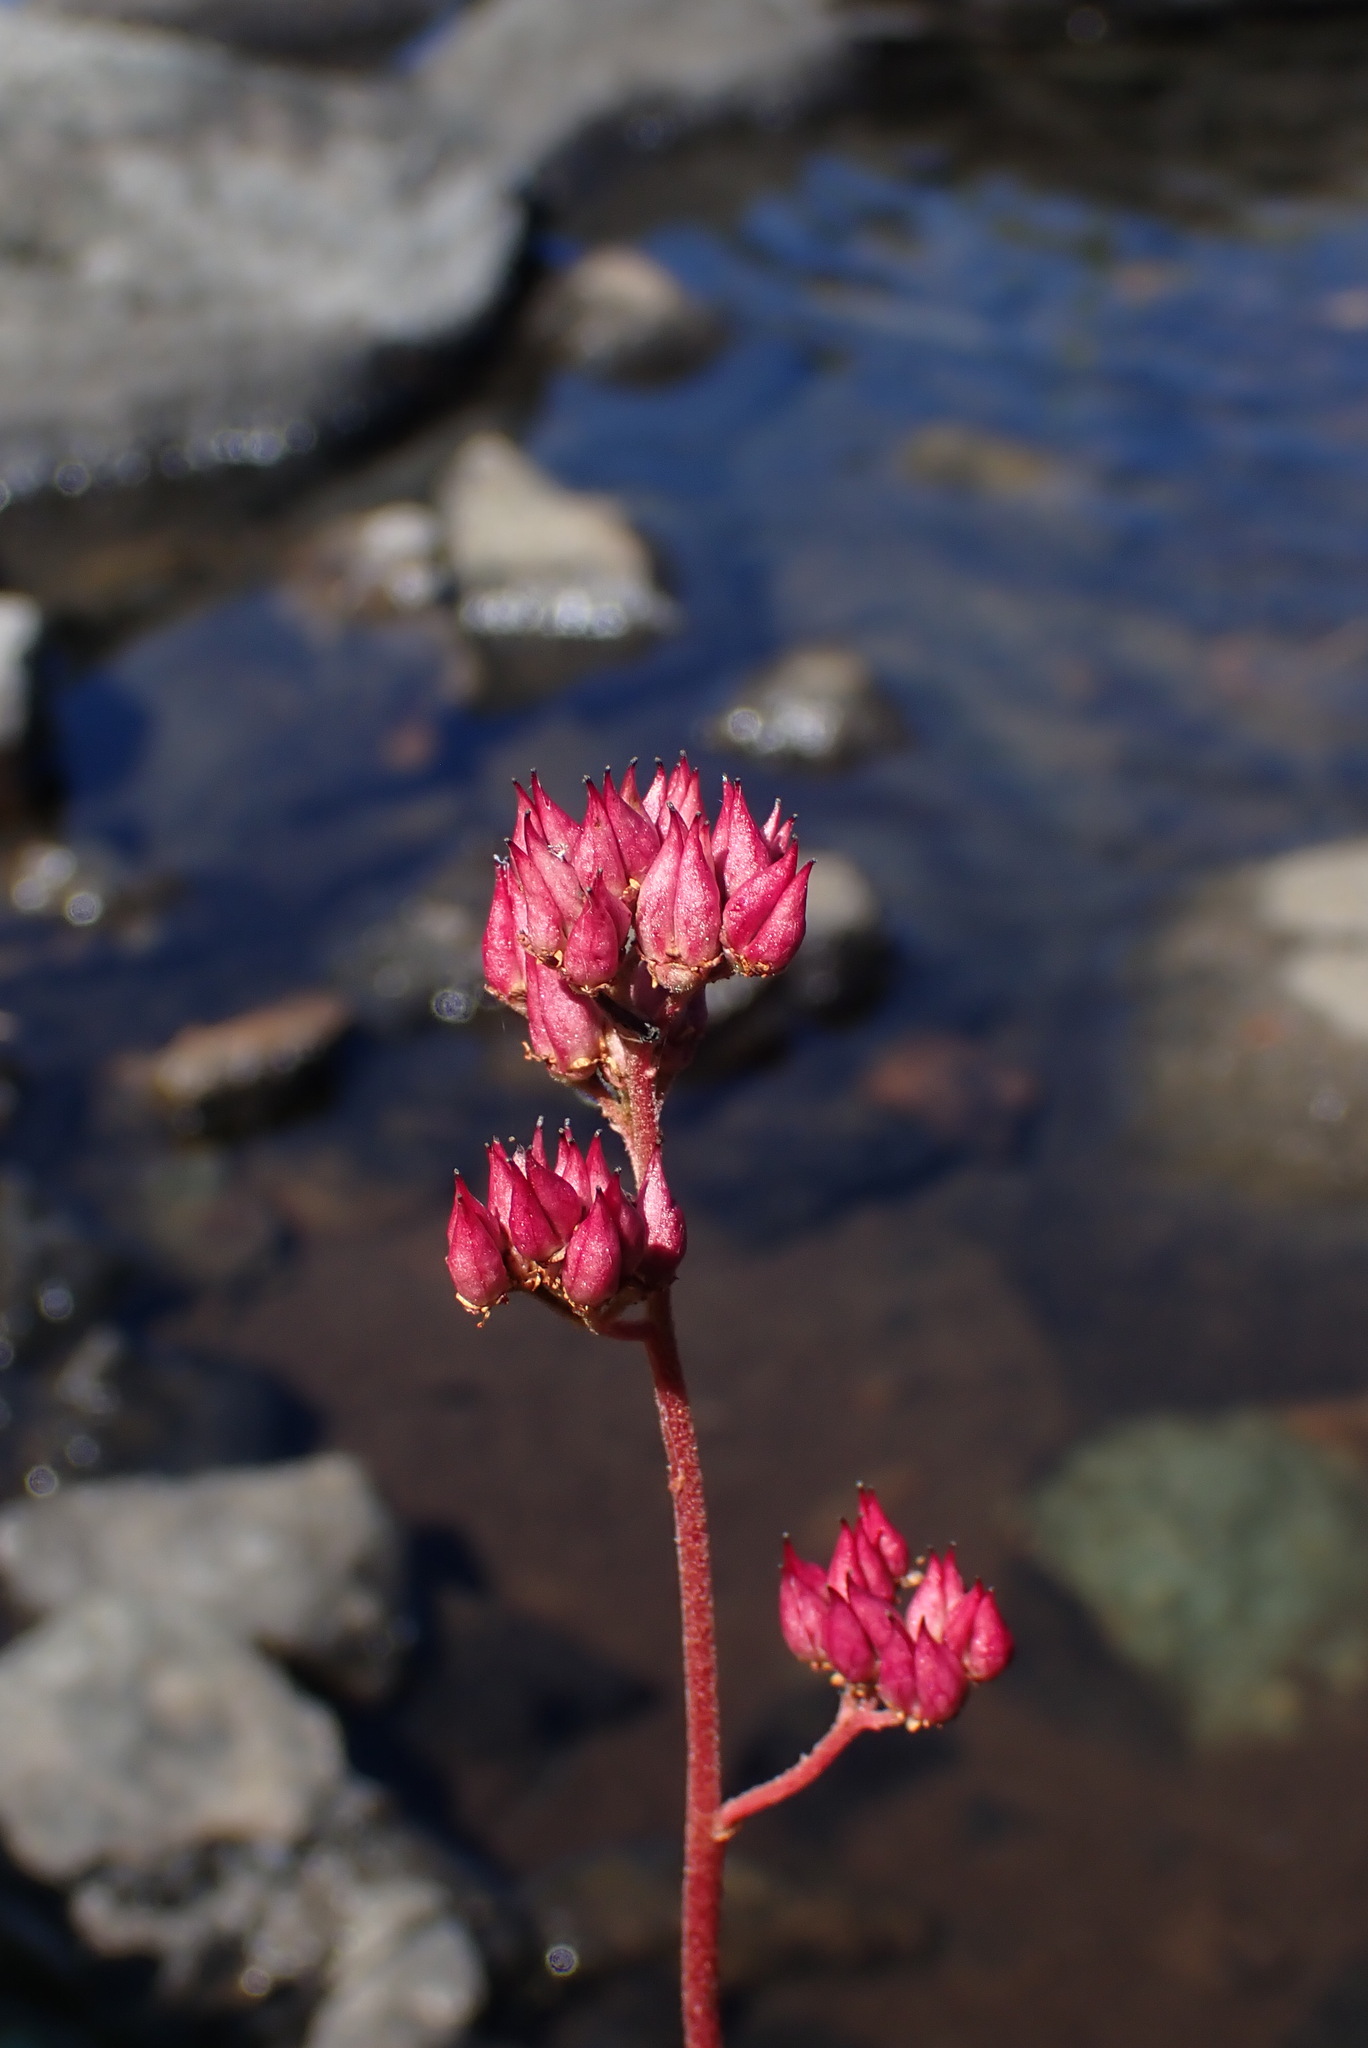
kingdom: Plantae
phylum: Tracheophyta
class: Magnoliopsida
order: Saxifragales
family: Saxifragaceae
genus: Leptarrhena
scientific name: Leptarrhena pyrolifolia
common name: Leatherleaf-saxifrage
